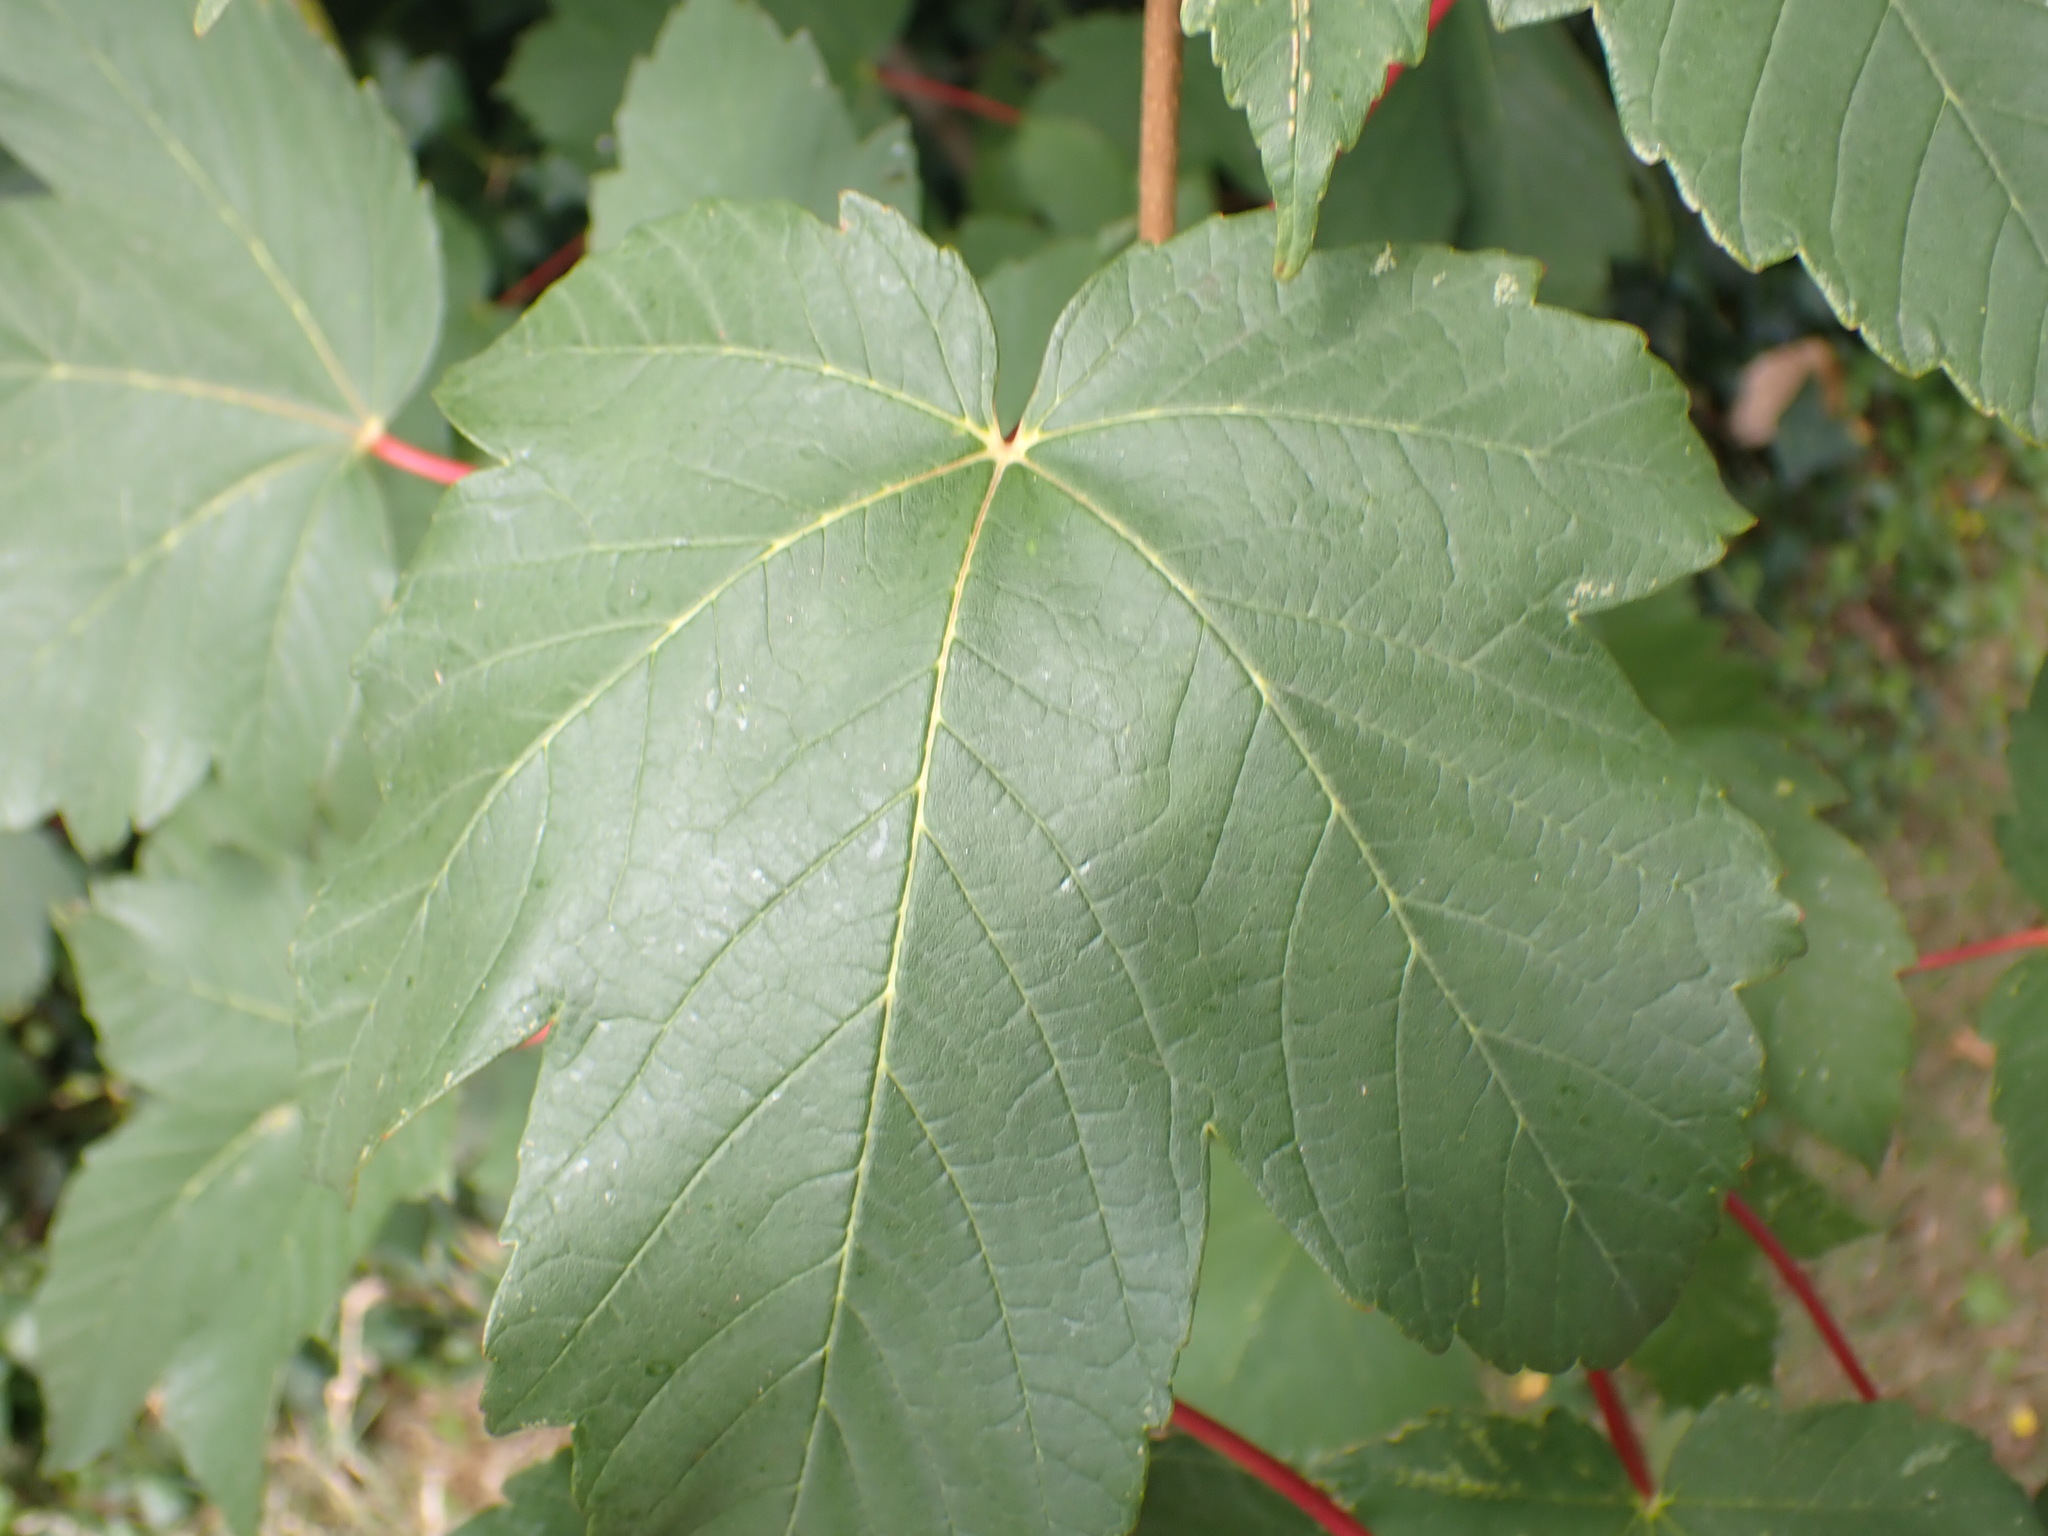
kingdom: Plantae
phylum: Tracheophyta
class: Magnoliopsida
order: Sapindales
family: Sapindaceae
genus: Acer
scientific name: Acer pseudoplatanus
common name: Sycamore
